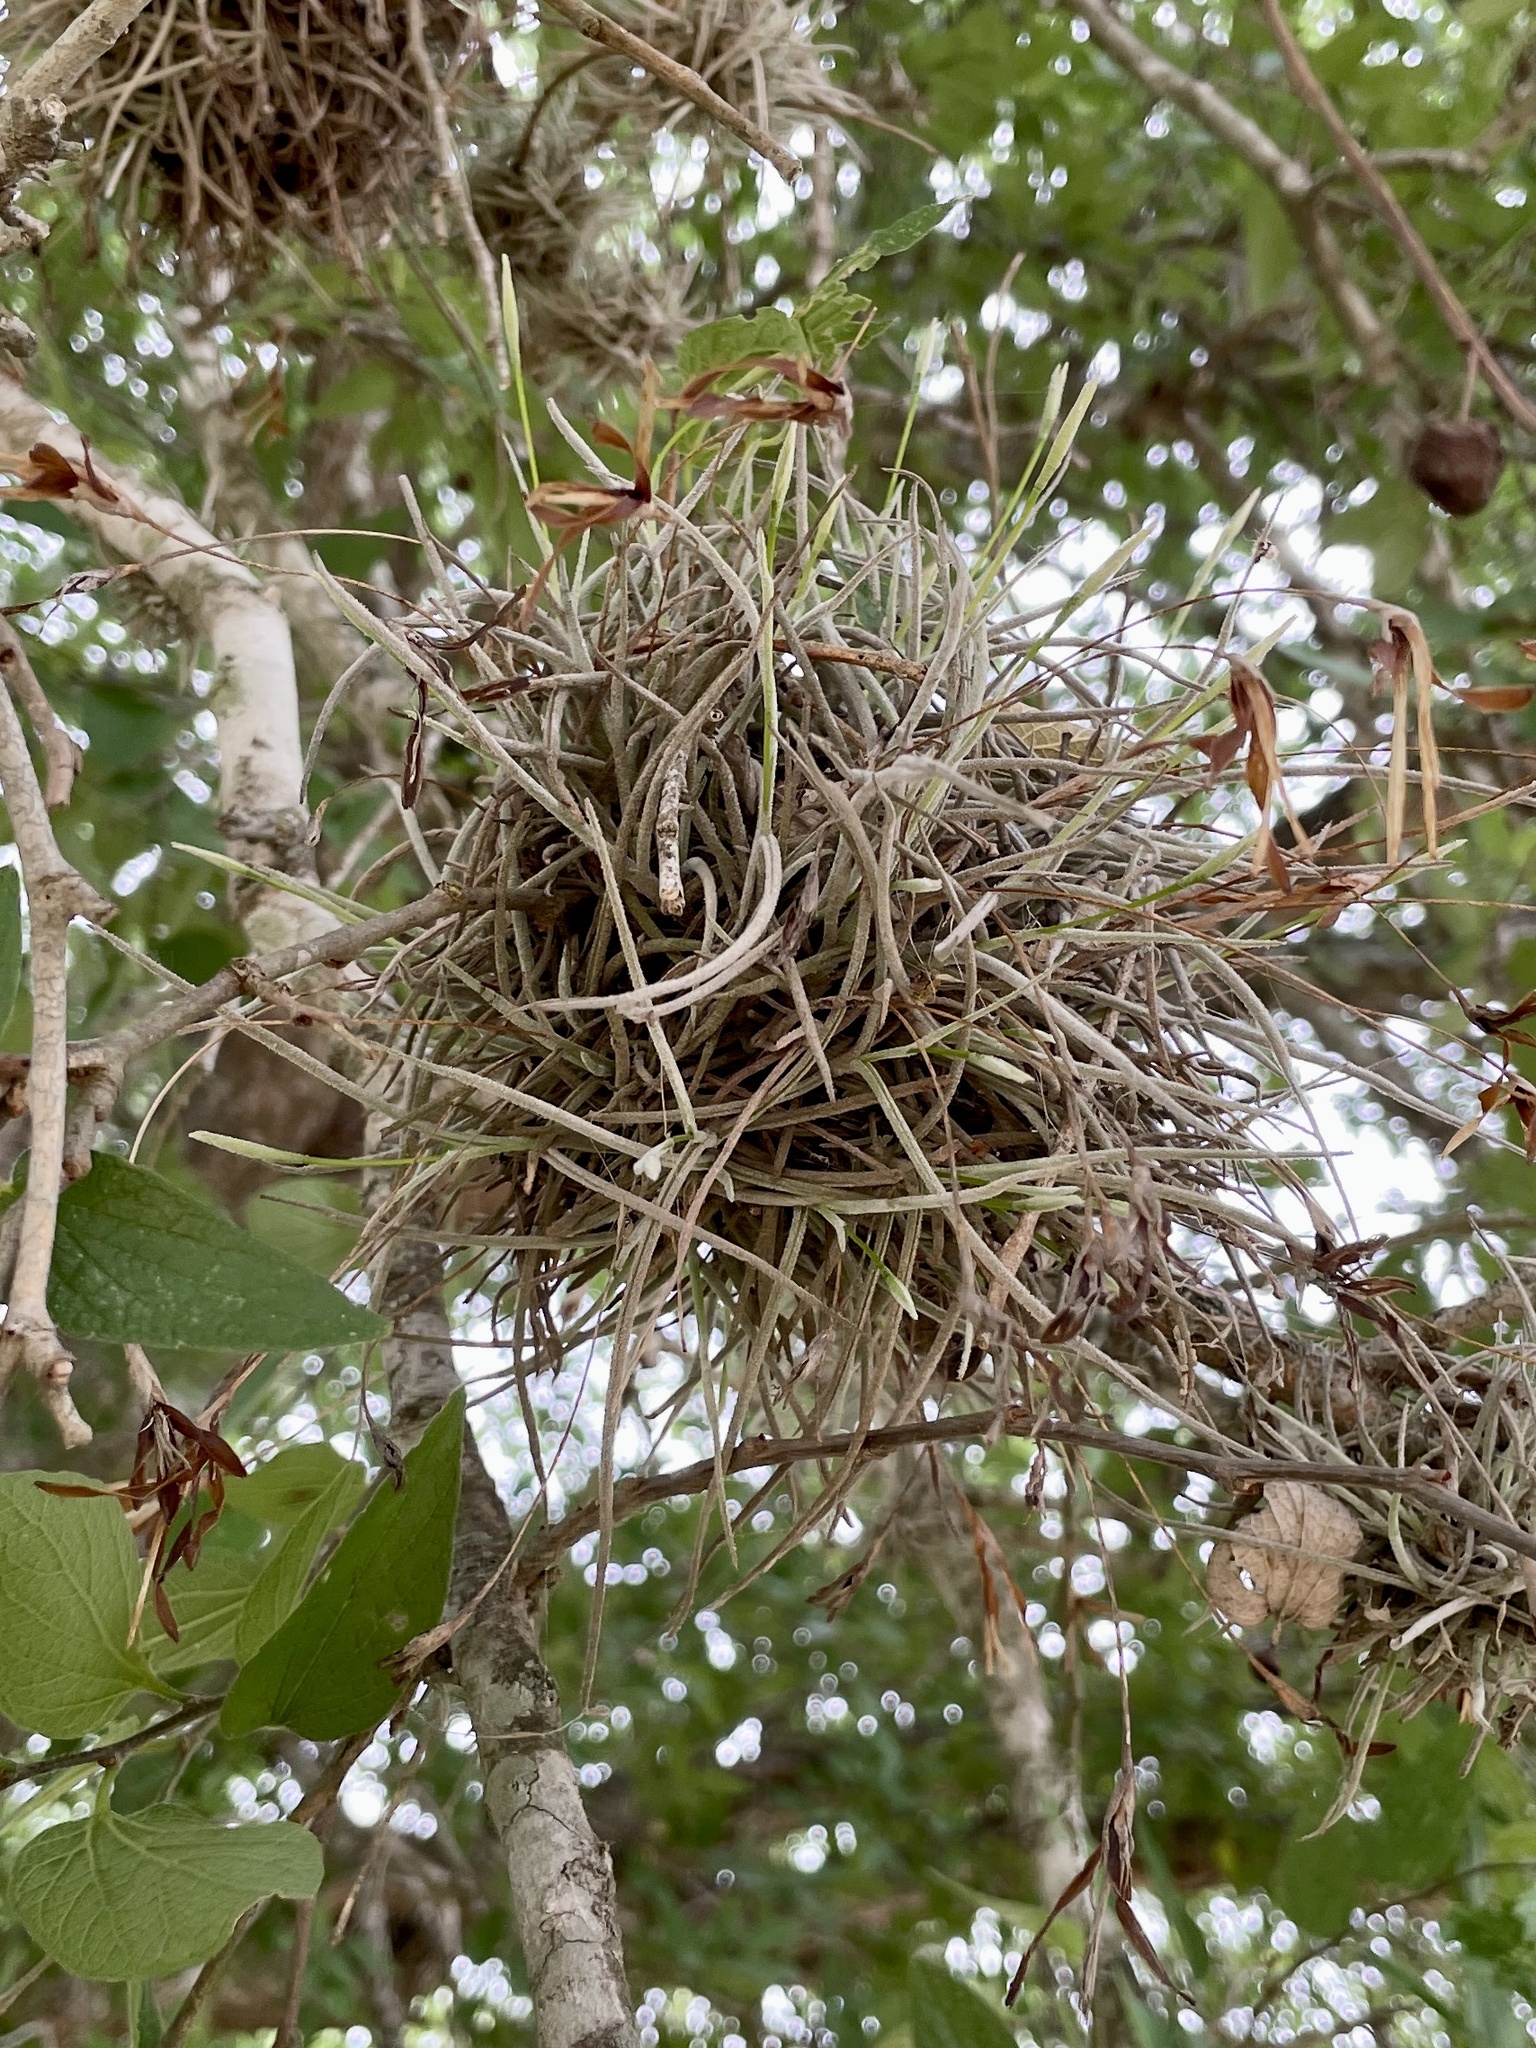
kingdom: Plantae
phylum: Tracheophyta
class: Liliopsida
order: Poales
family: Bromeliaceae
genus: Tillandsia
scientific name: Tillandsia recurvata
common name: Small ballmoss
